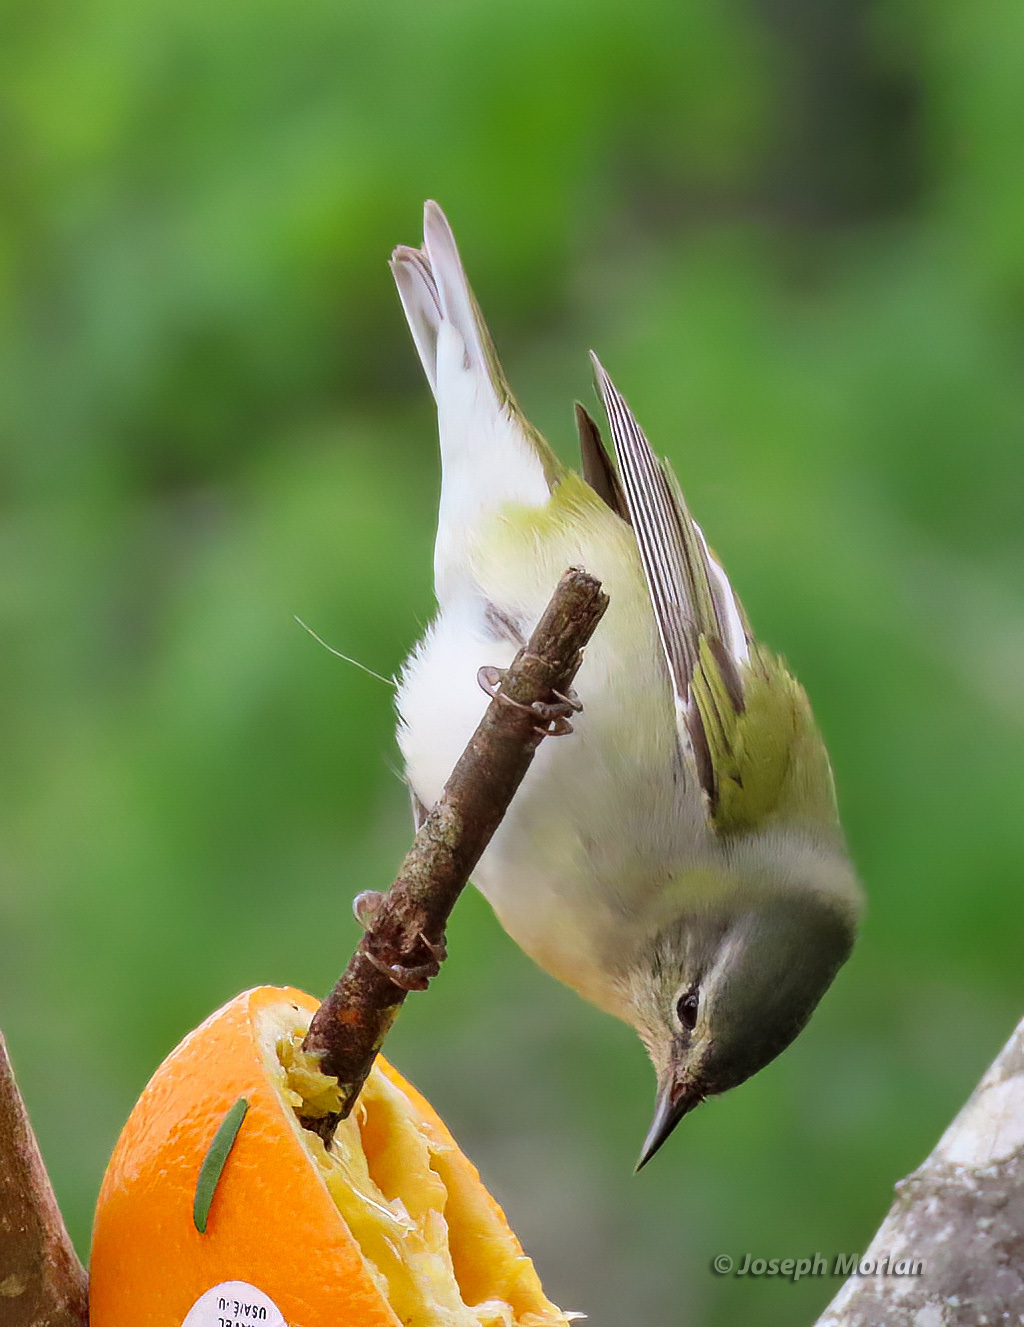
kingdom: Animalia
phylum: Chordata
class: Aves
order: Passeriformes
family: Parulidae
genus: Leiothlypis
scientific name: Leiothlypis peregrina
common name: Tennessee warbler
